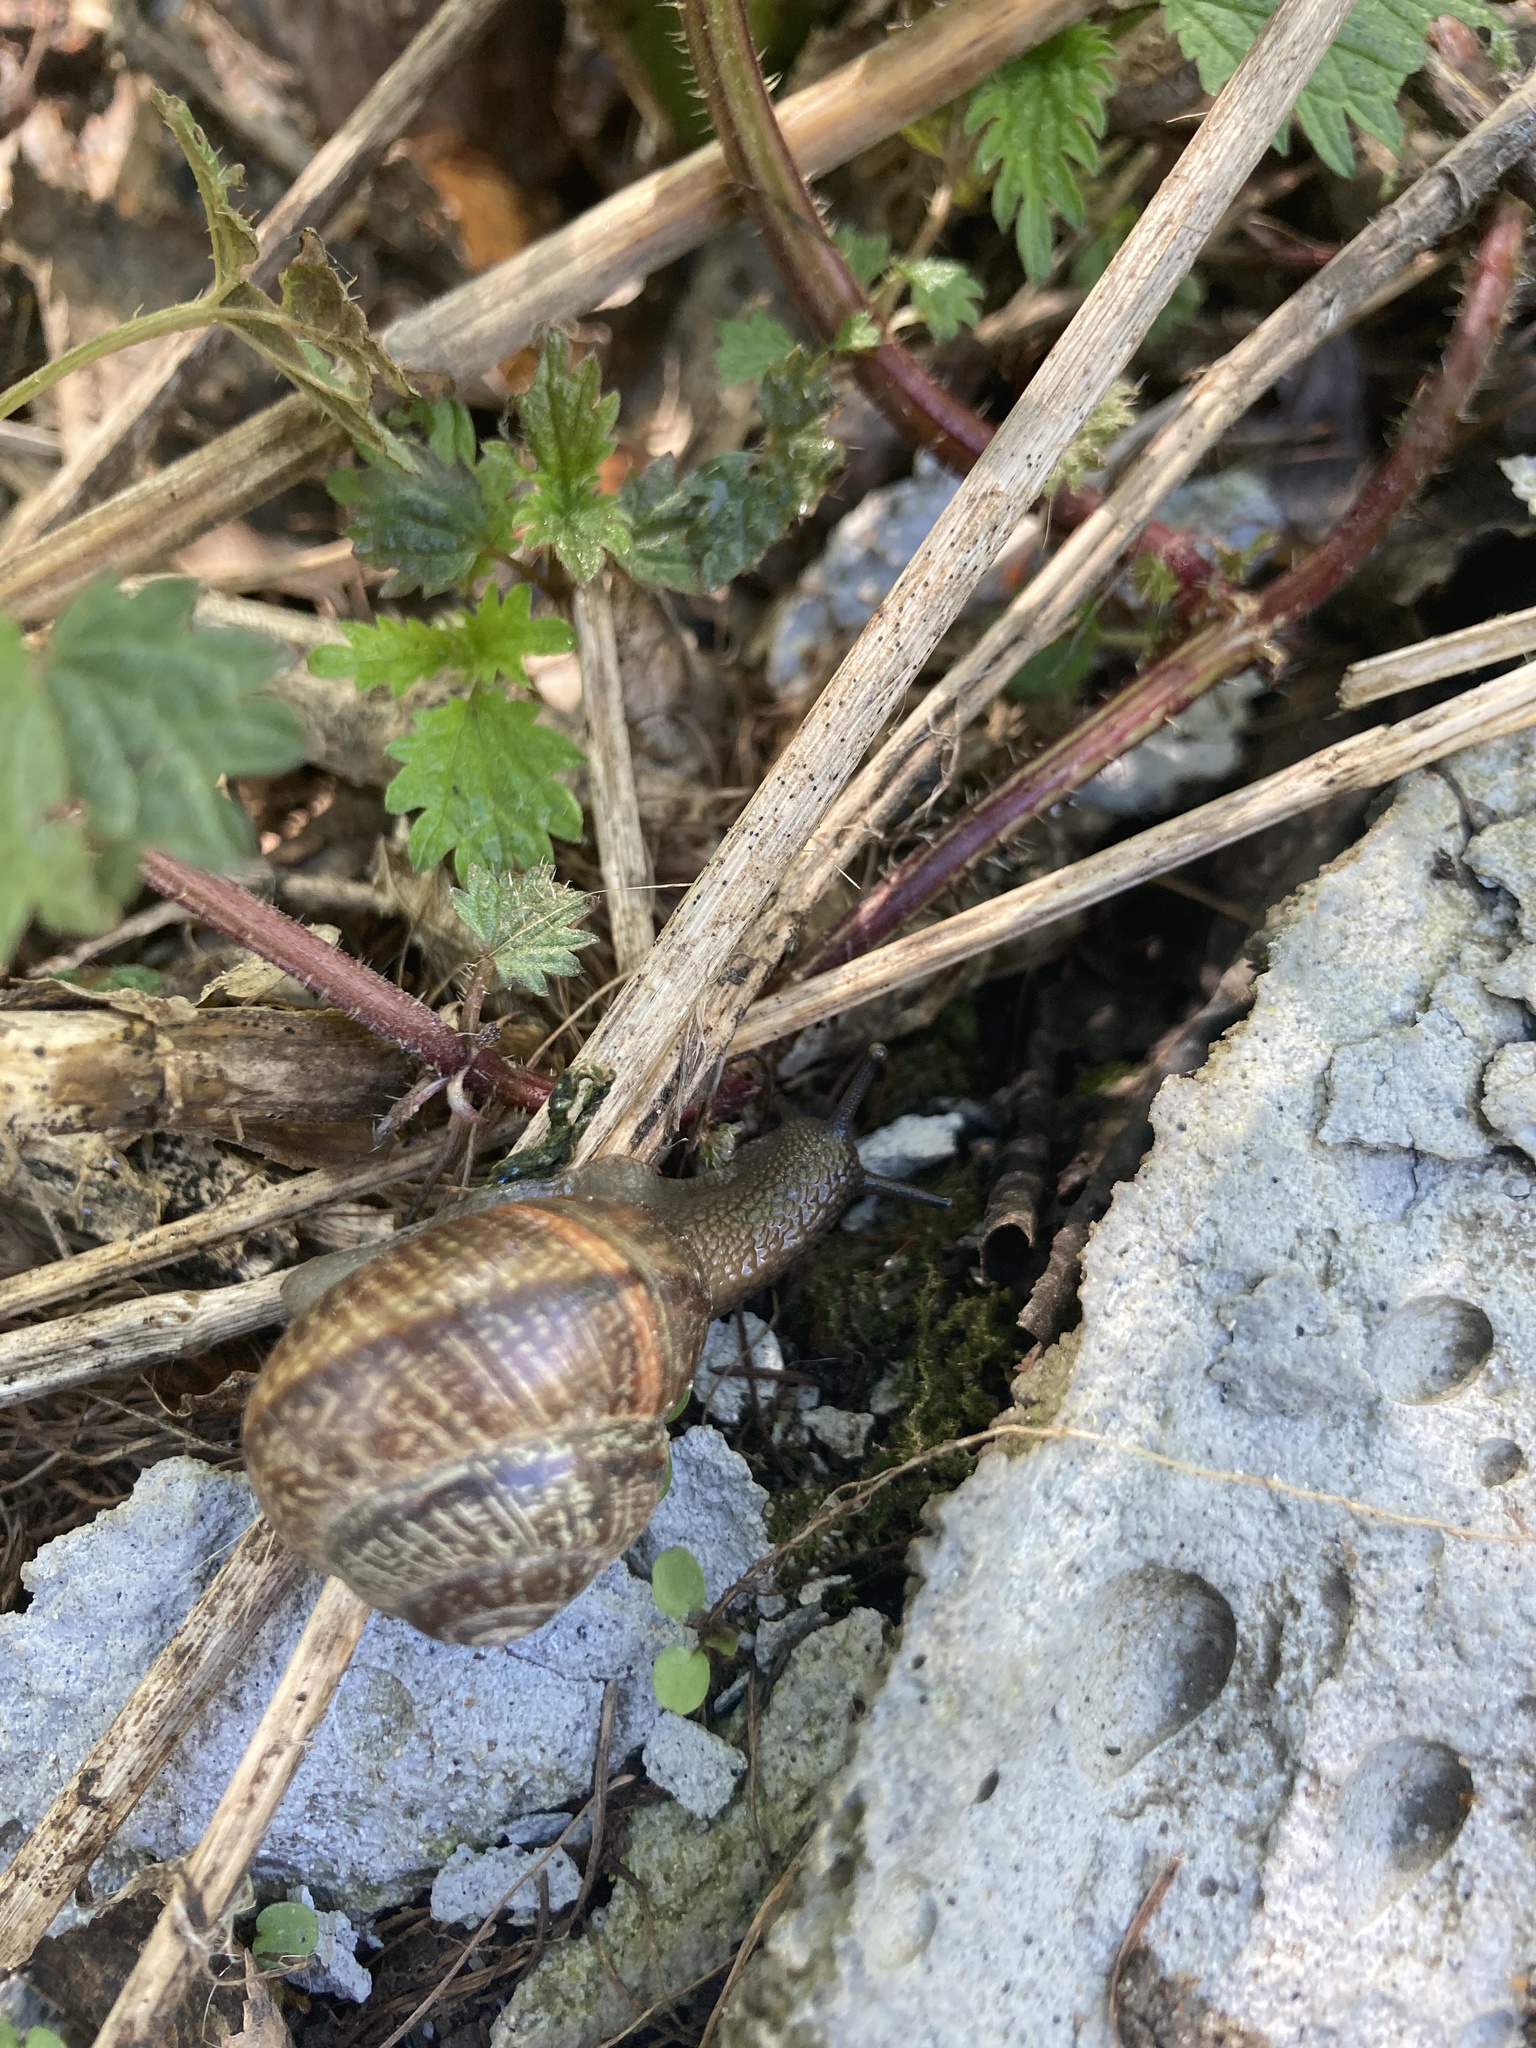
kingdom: Animalia
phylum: Mollusca
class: Gastropoda
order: Stylommatophora
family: Helicidae
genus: Arianta
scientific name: Arianta arbustorum
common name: Copse snail
